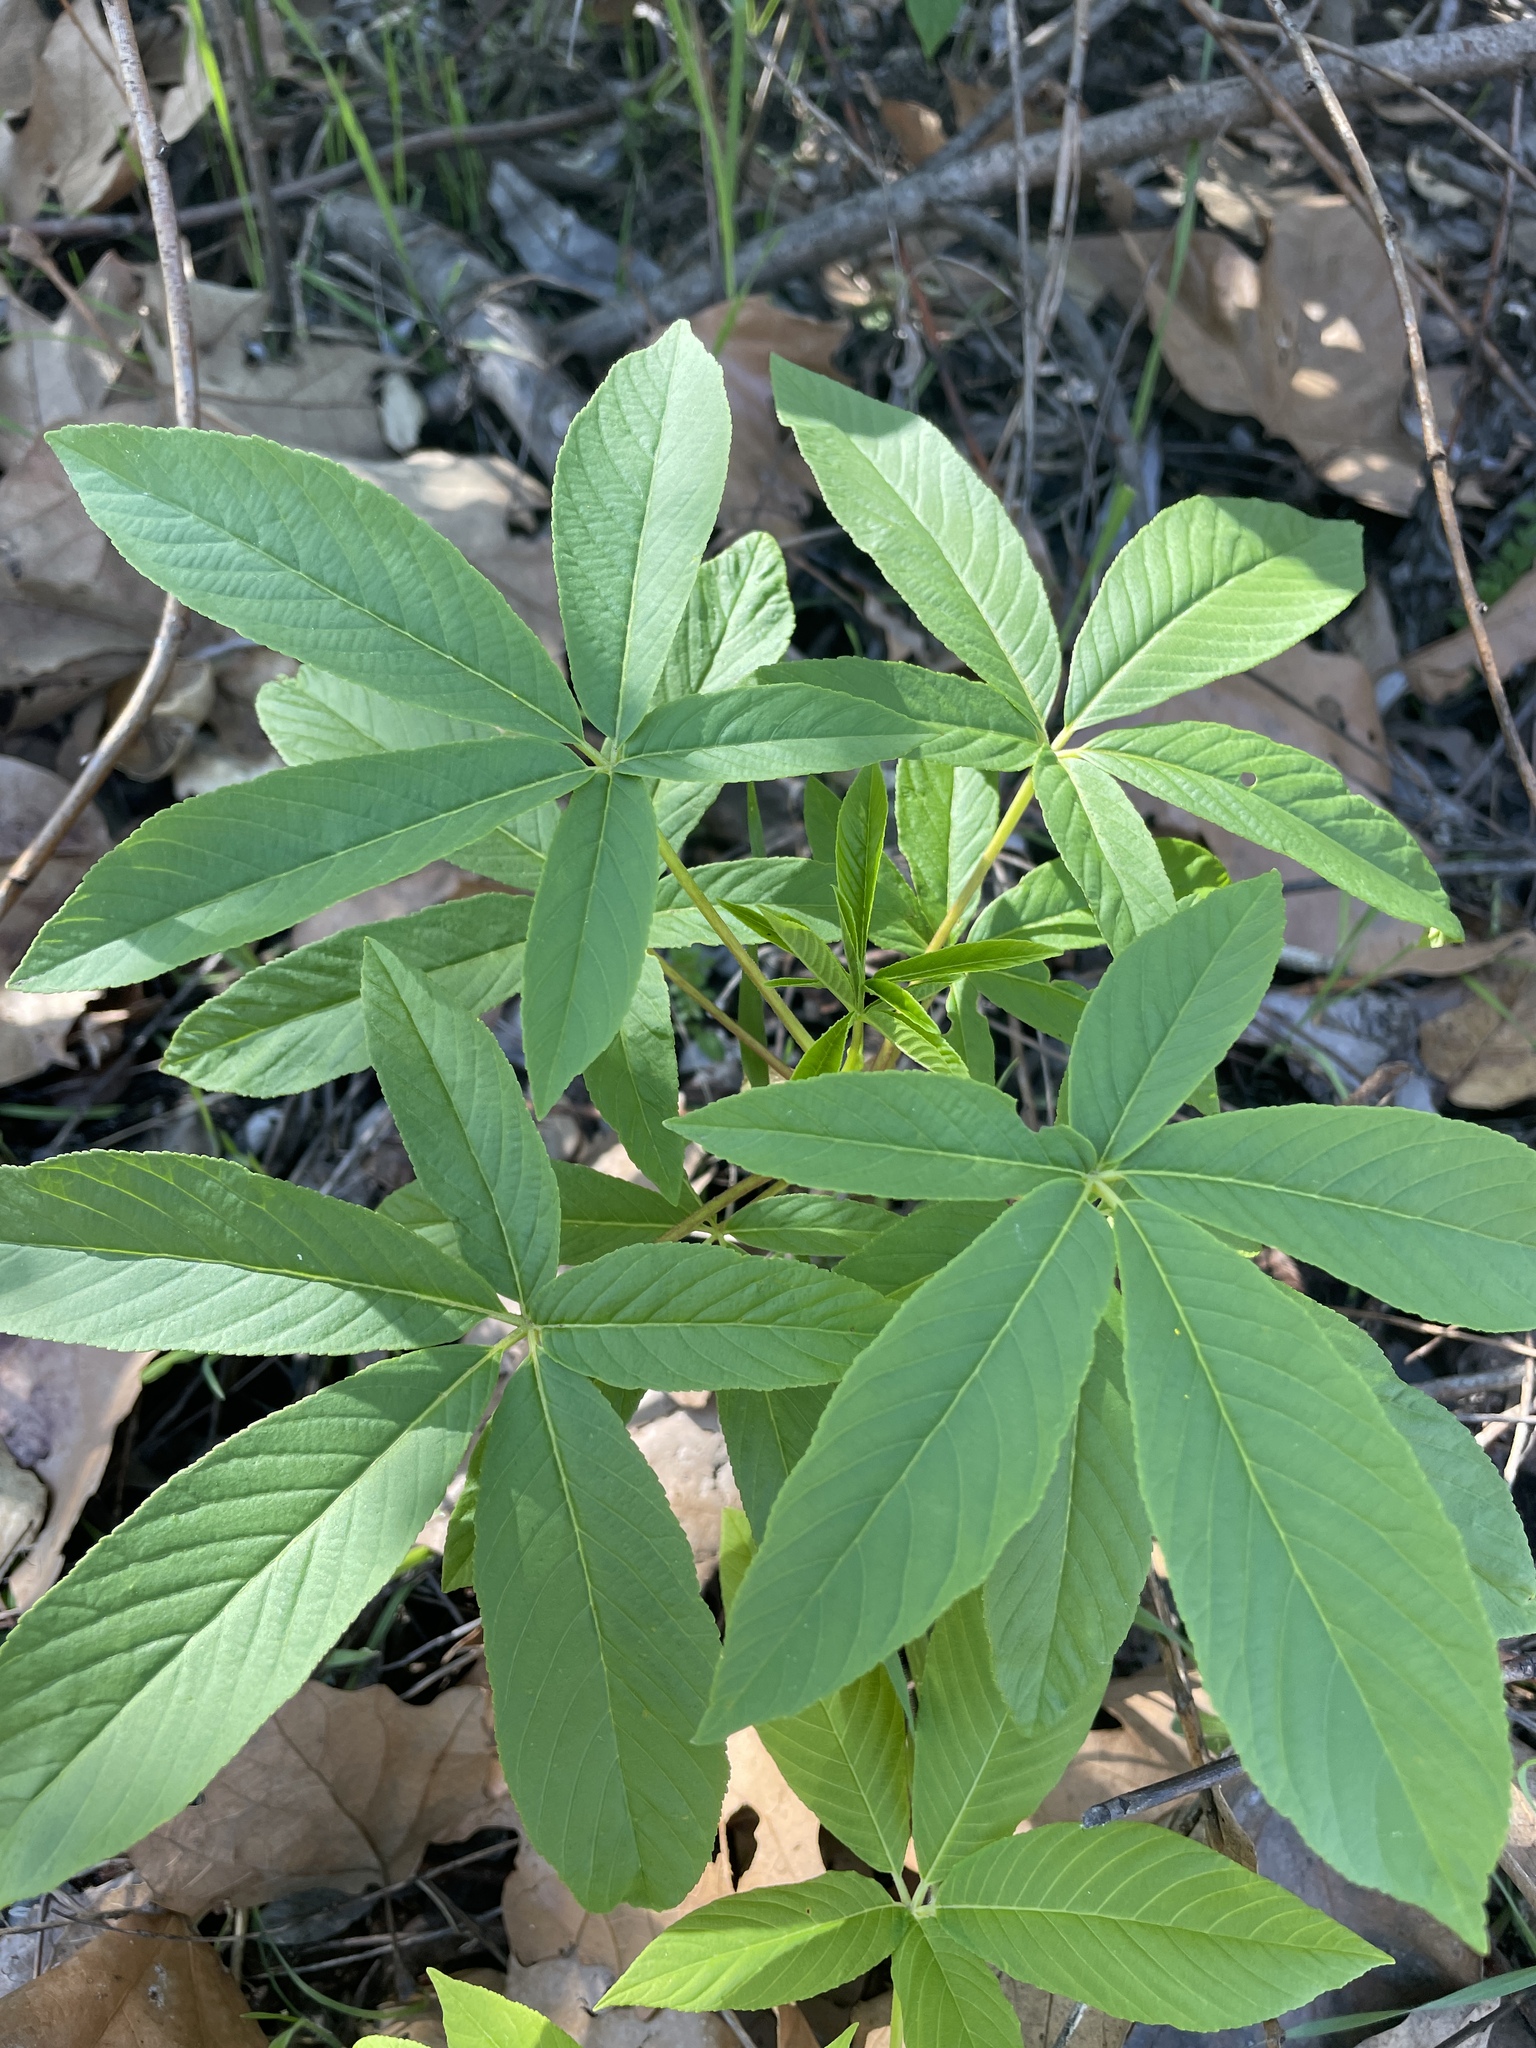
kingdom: Plantae
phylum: Tracheophyta
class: Magnoliopsida
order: Sapindales
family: Sapindaceae
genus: Aesculus
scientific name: Aesculus californica
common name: California buckeye
